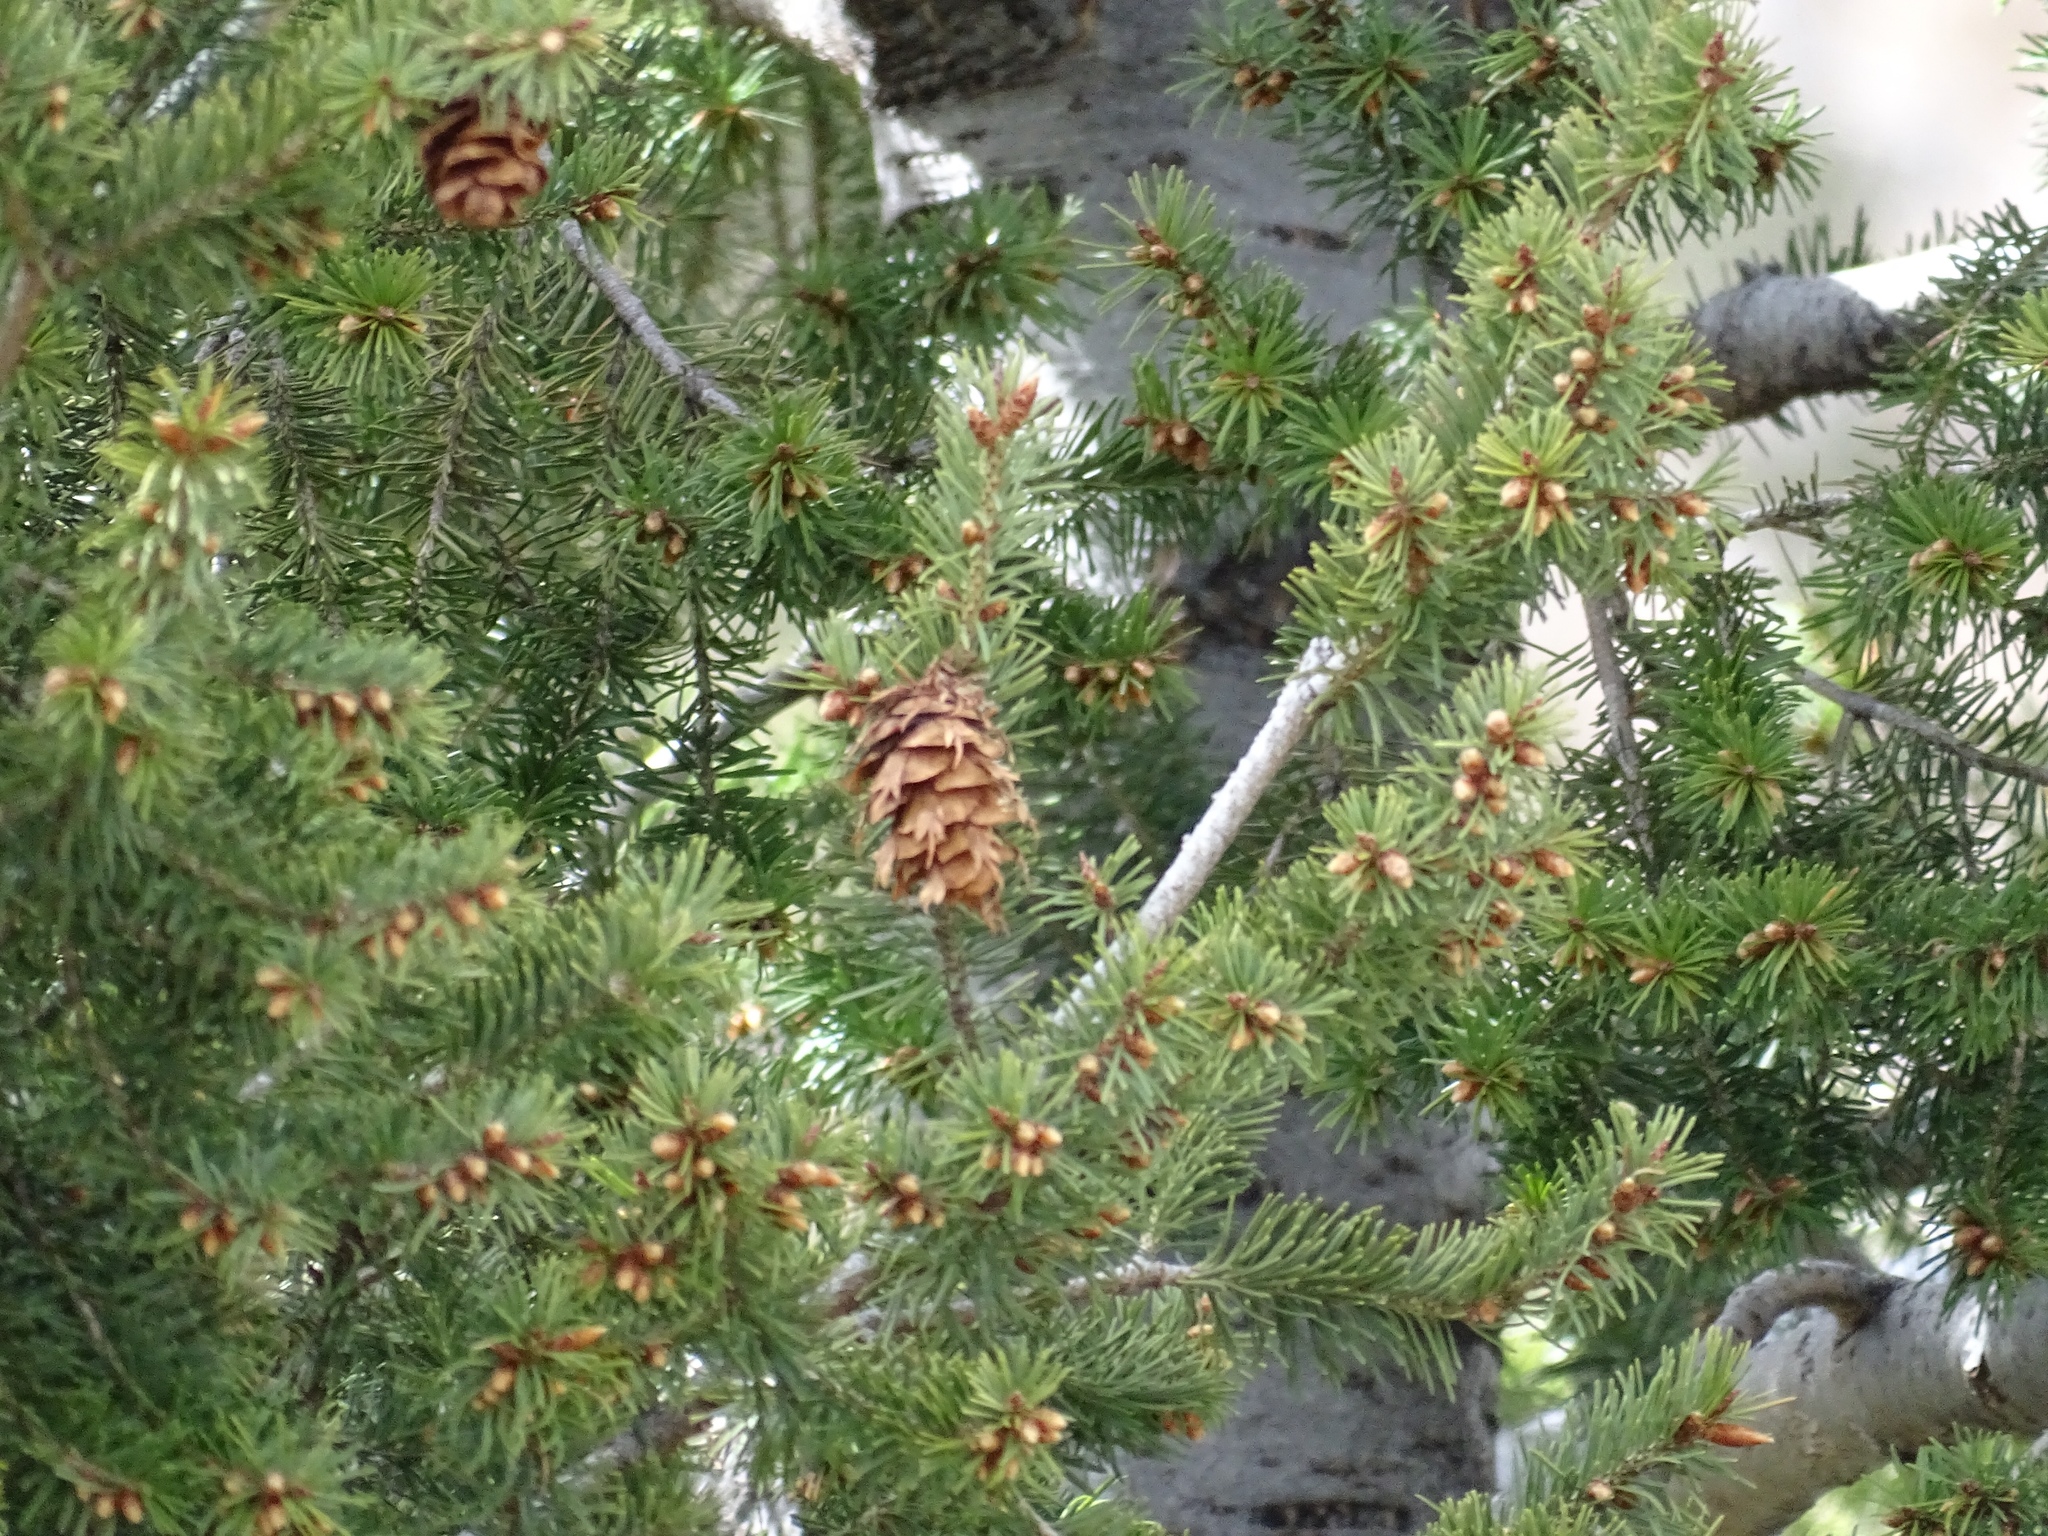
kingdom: Plantae
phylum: Tracheophyta
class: Pinopsida
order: Pinales
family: Pinaceae
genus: Pseudotsuga
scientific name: Pseudotsuga menziesii
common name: Douglas fir
